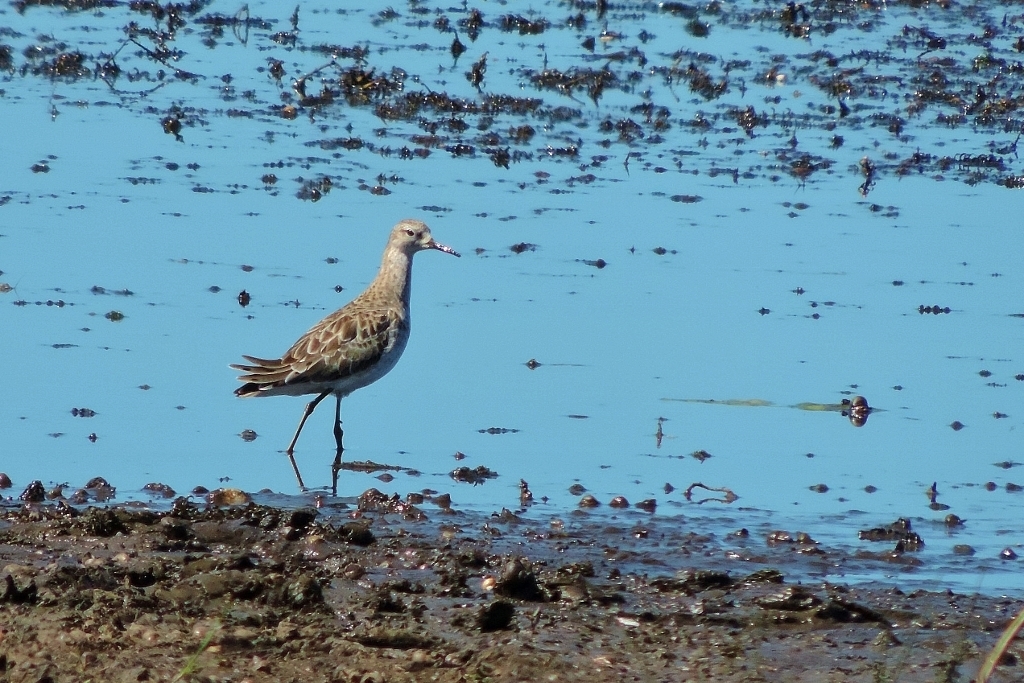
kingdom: Animalia
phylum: Chordata
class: Aves
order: Charadriiformes
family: Scolopacidae
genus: Calidris
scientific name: Calidris pugnax
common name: Ruff
